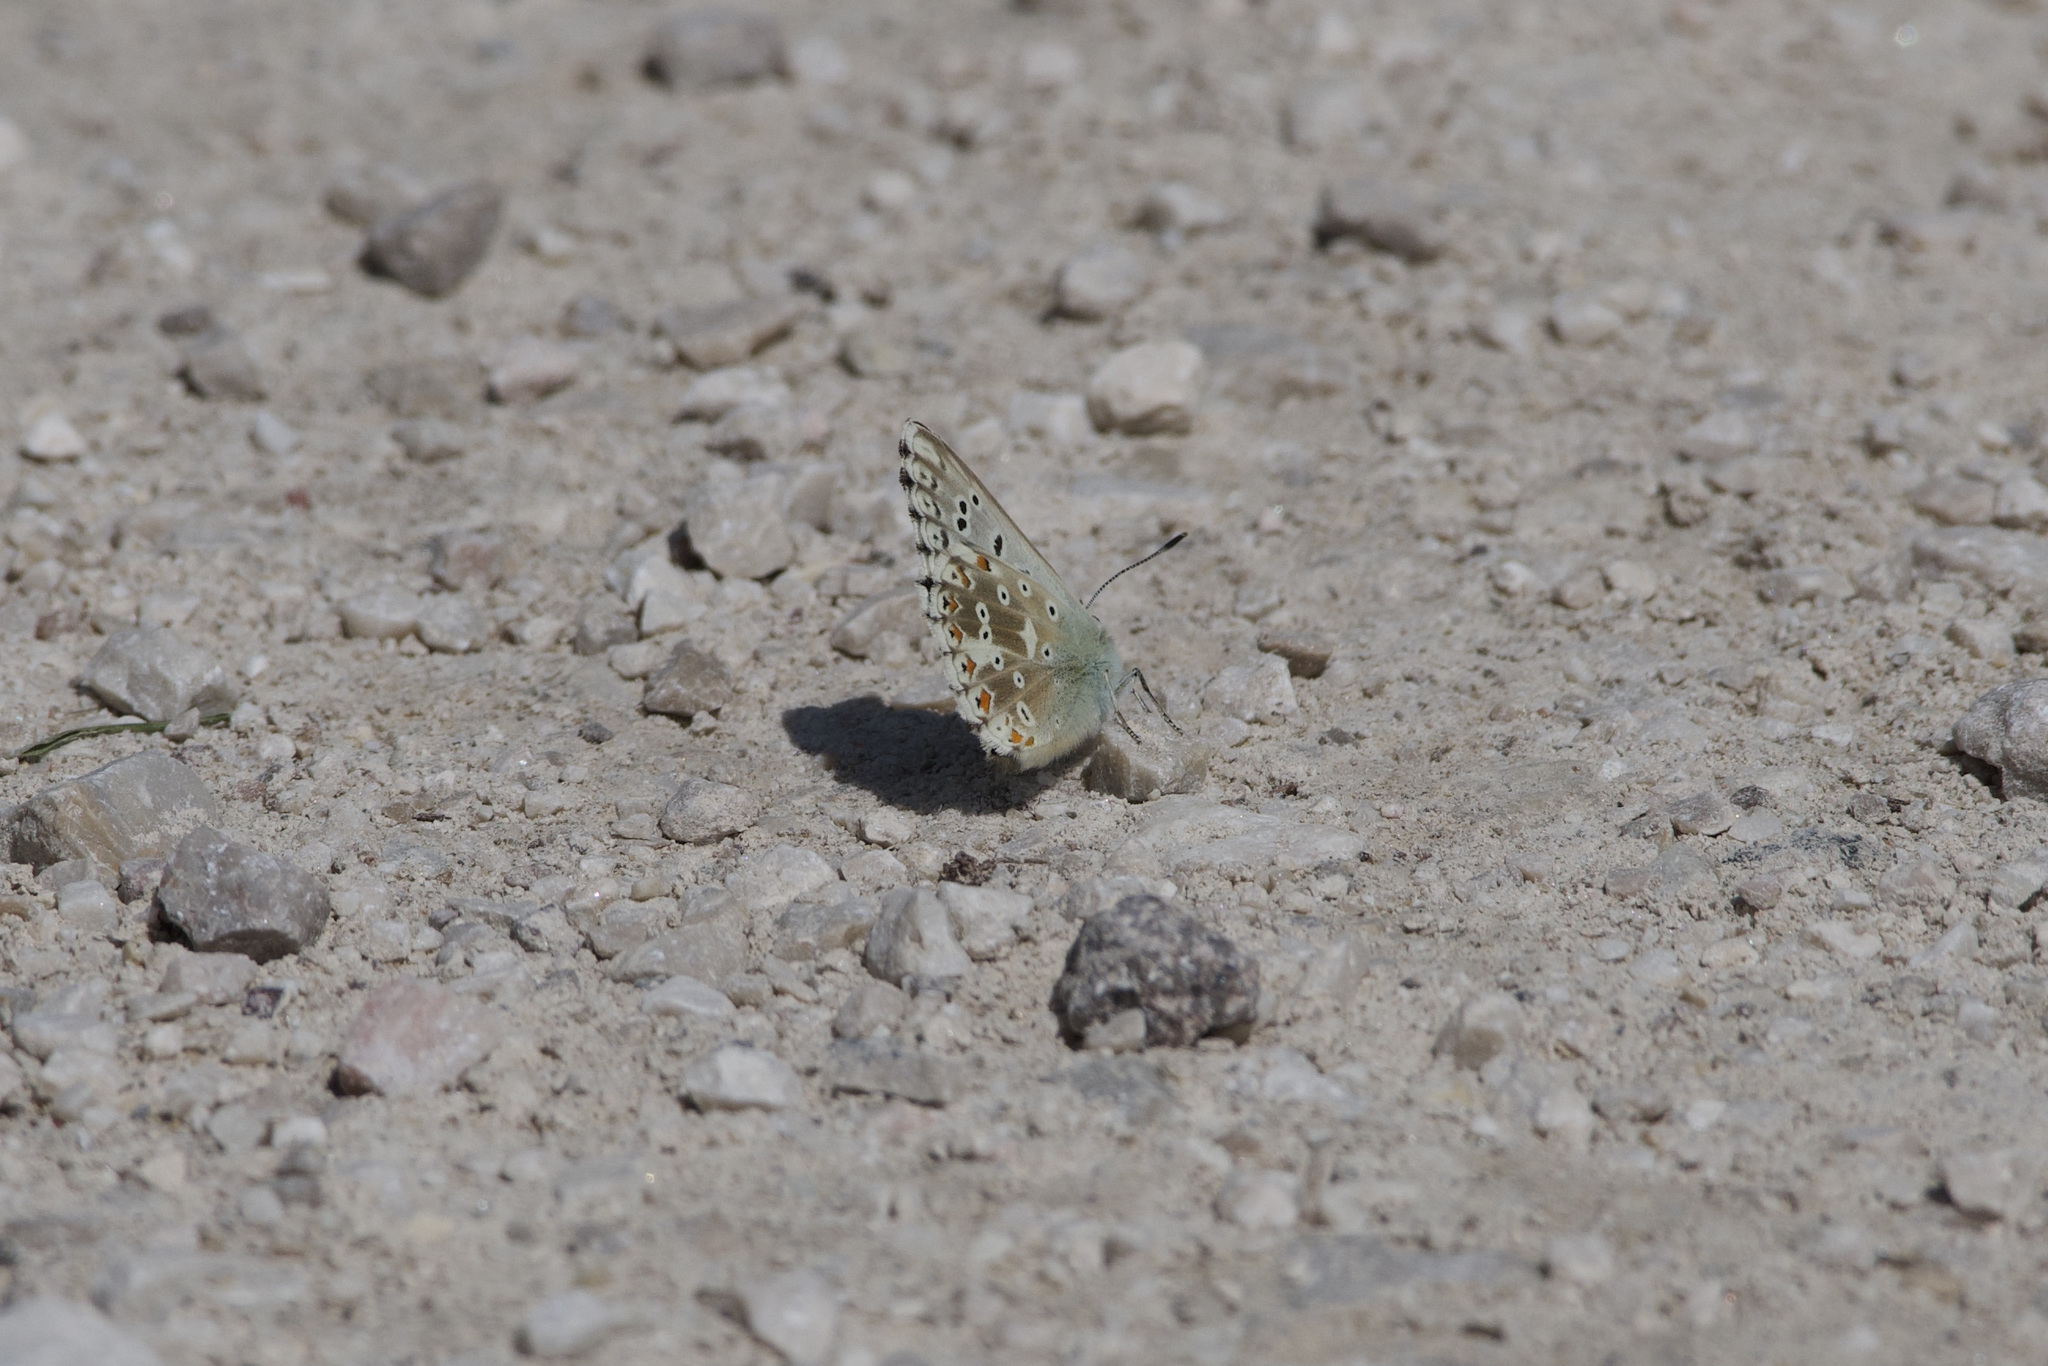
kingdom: Animalia
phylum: Arthropoda
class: Insecta
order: Lepidoptera
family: Lycaenidae
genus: Lysandra
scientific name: Lysandra coridon
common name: Chalkhill blue
